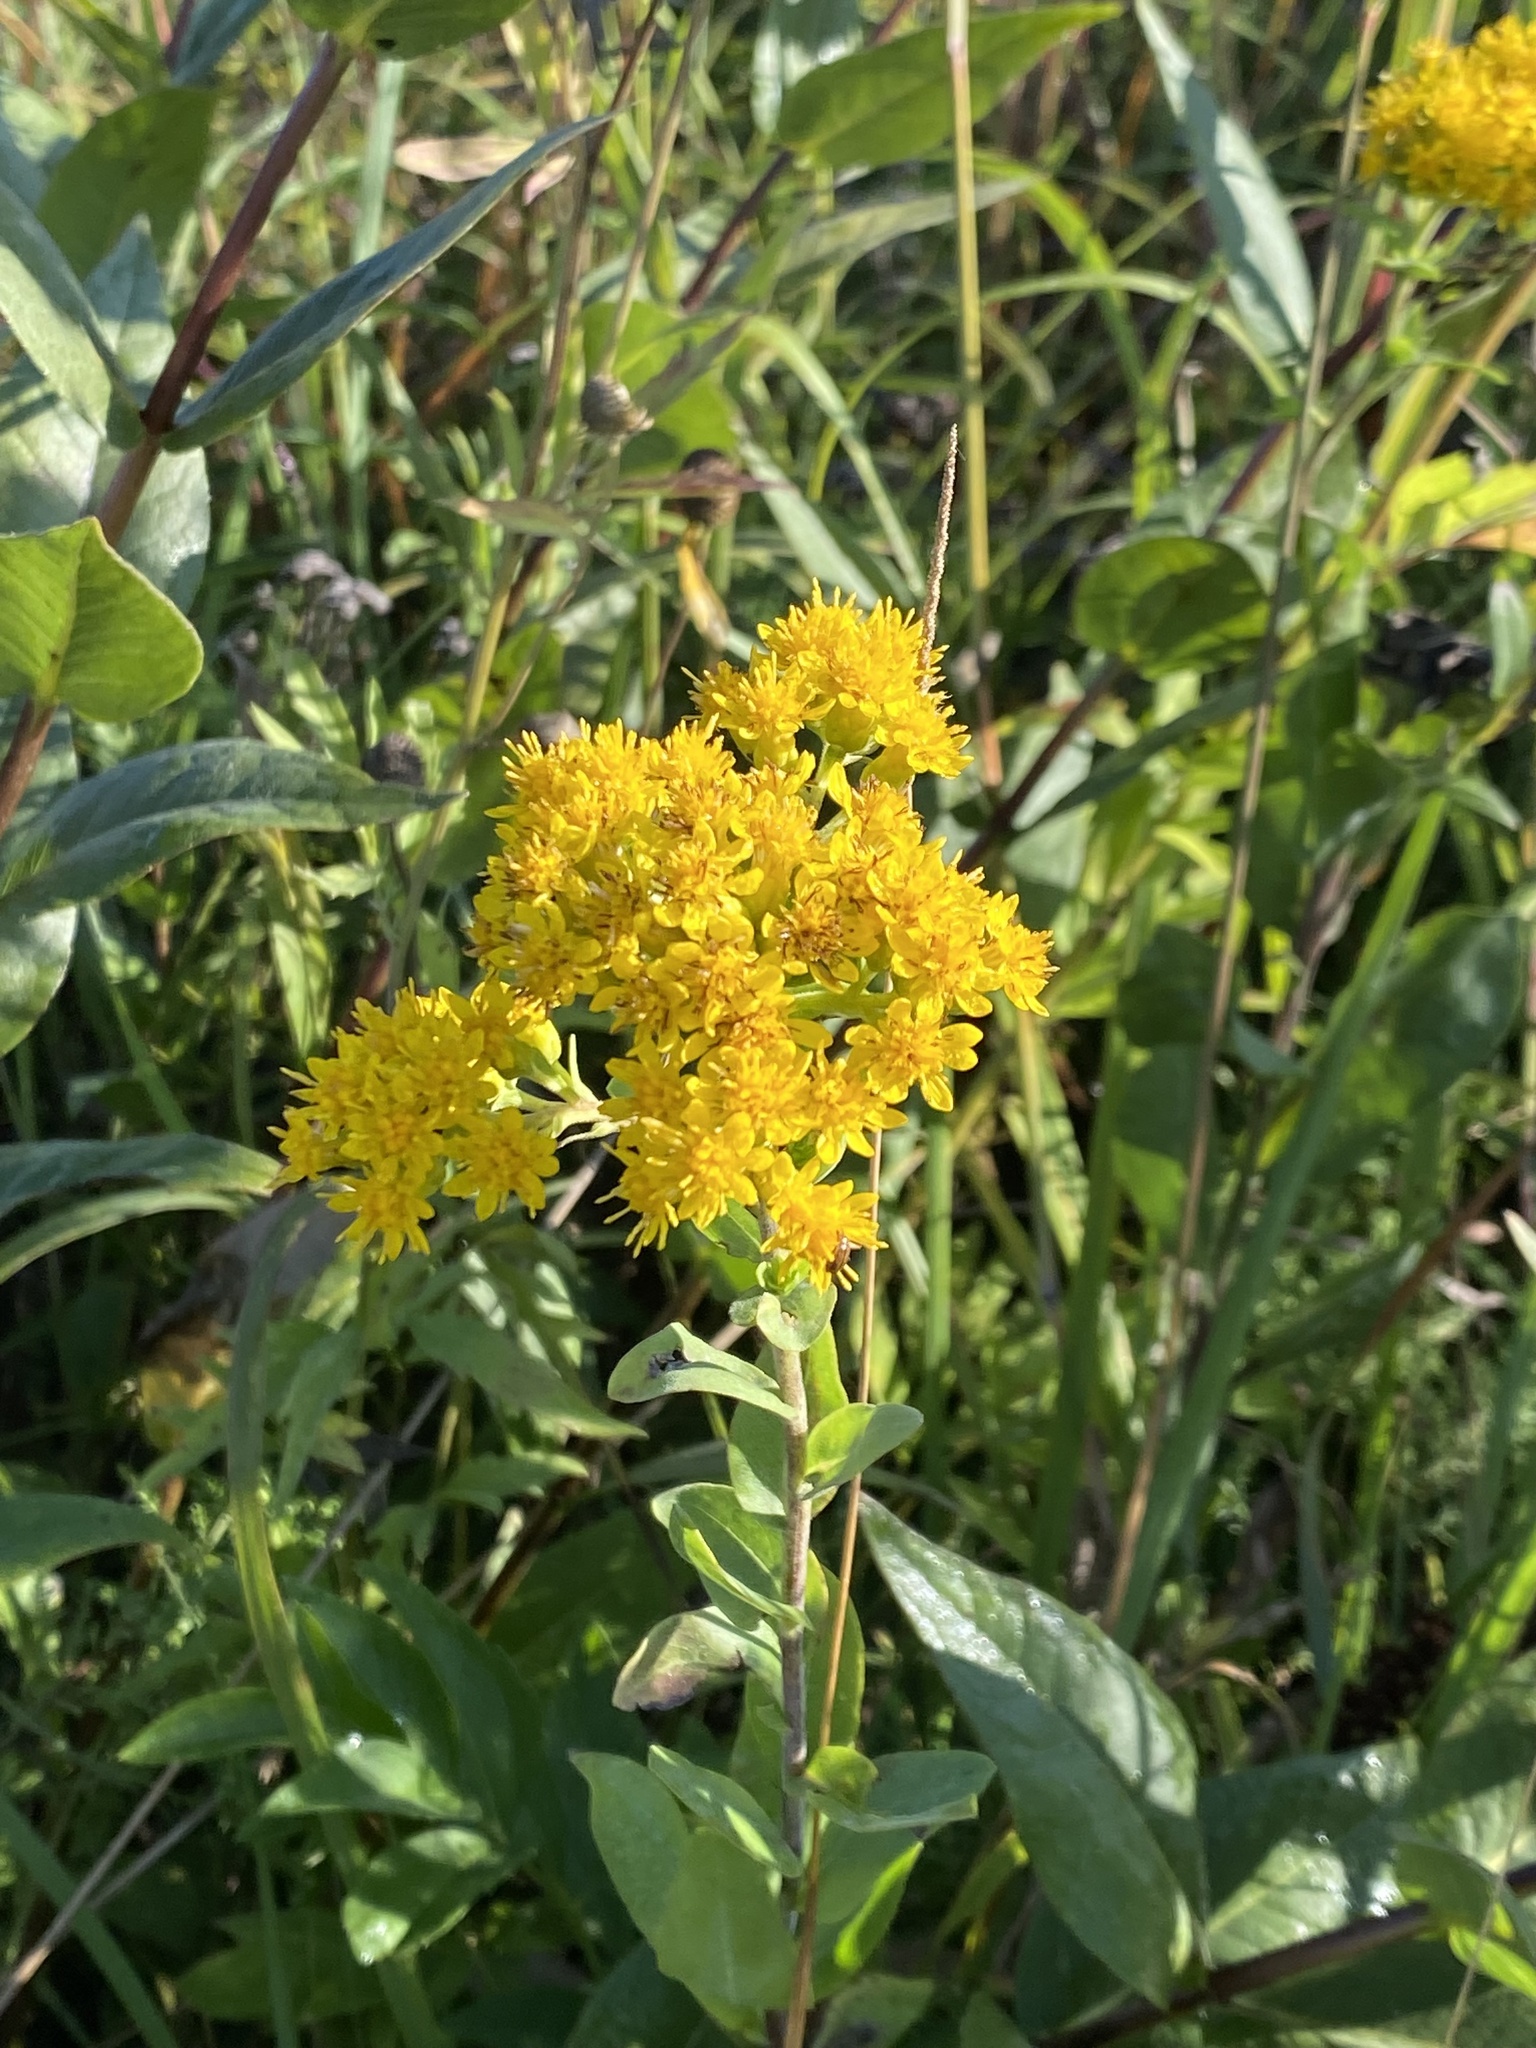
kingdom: Plantae
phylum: Tracheophyta
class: Magnoliopsida
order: Asterales
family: Asteraceae
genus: Solidago
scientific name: Solidago rigida
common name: Rigid goldenrod
